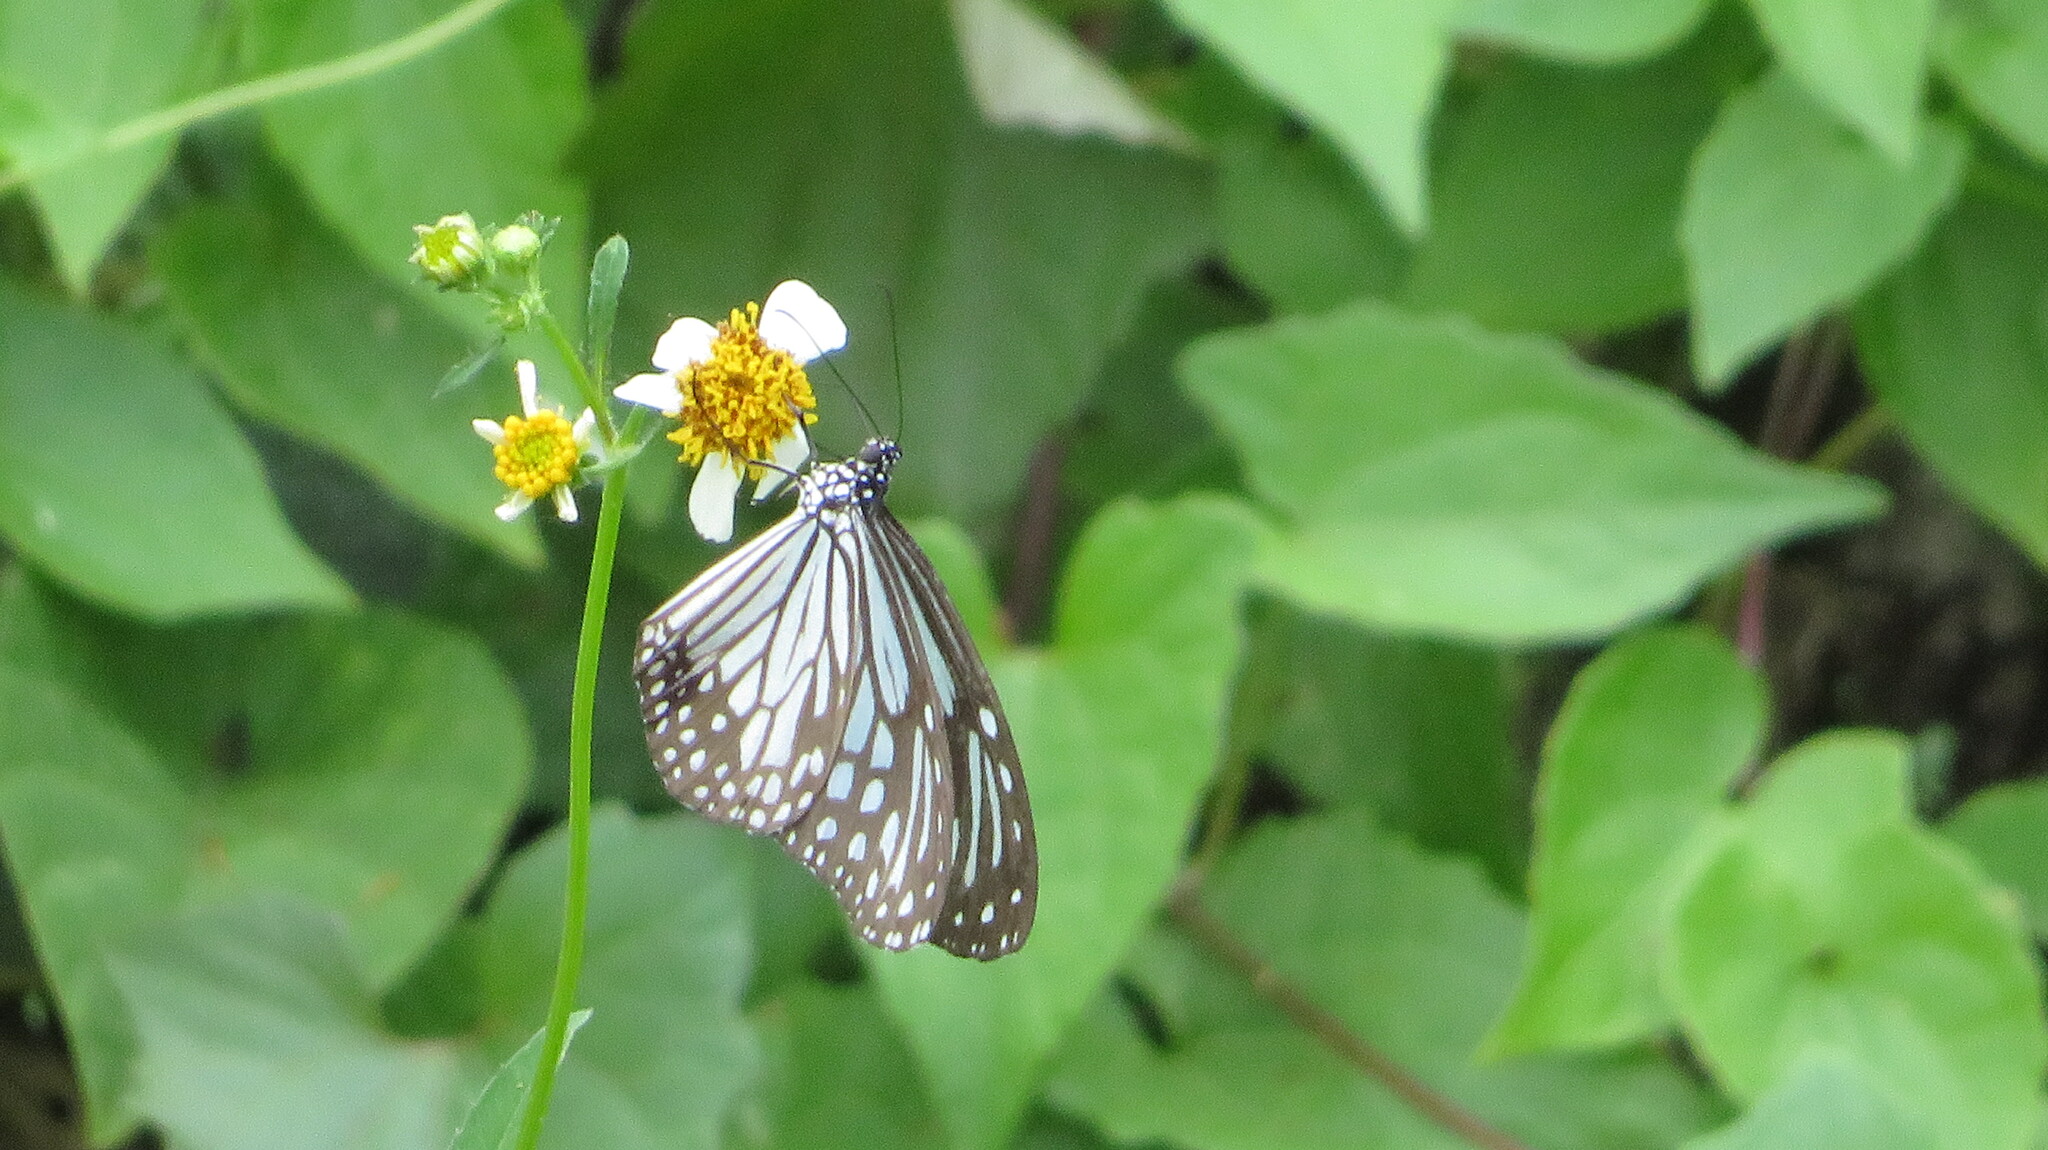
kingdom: Animalia
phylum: Arthropoda
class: Insecta
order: Lepidoptera
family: Nymphalidae
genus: Parantica
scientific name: Parantica aglea
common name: Glassy tiger
